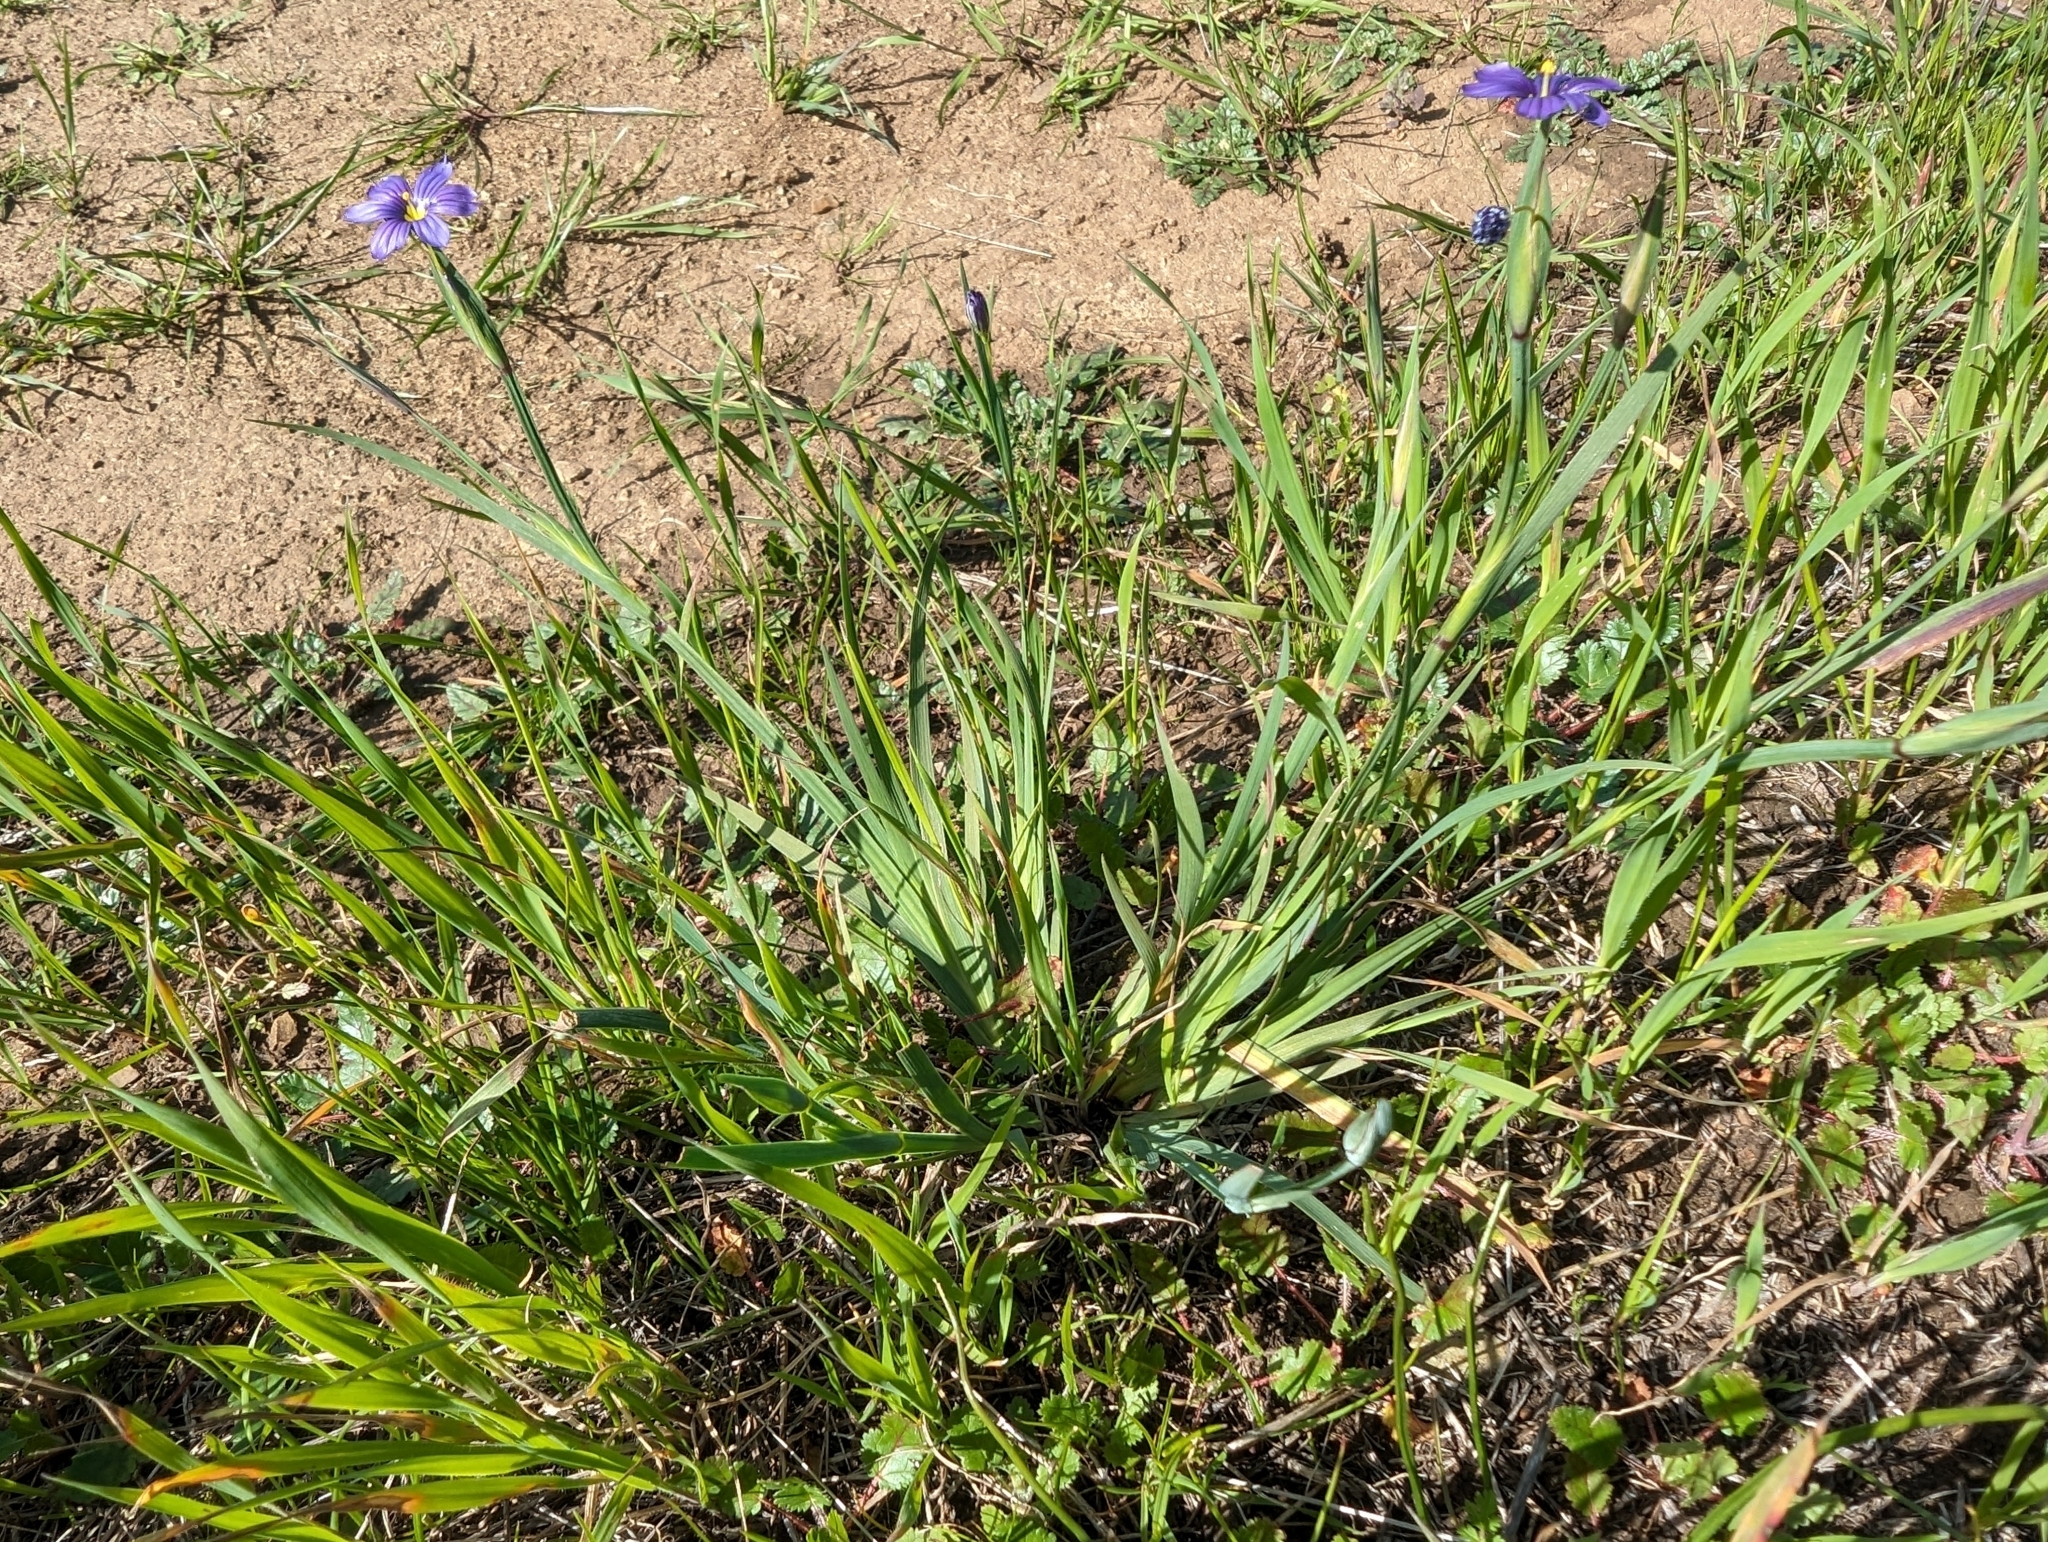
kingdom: Plantae
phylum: Tracheophyta
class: Liliopsida
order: Asparagales
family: Iridaceae
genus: Sisyrinchium
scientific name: Sisyrinchium bellum
